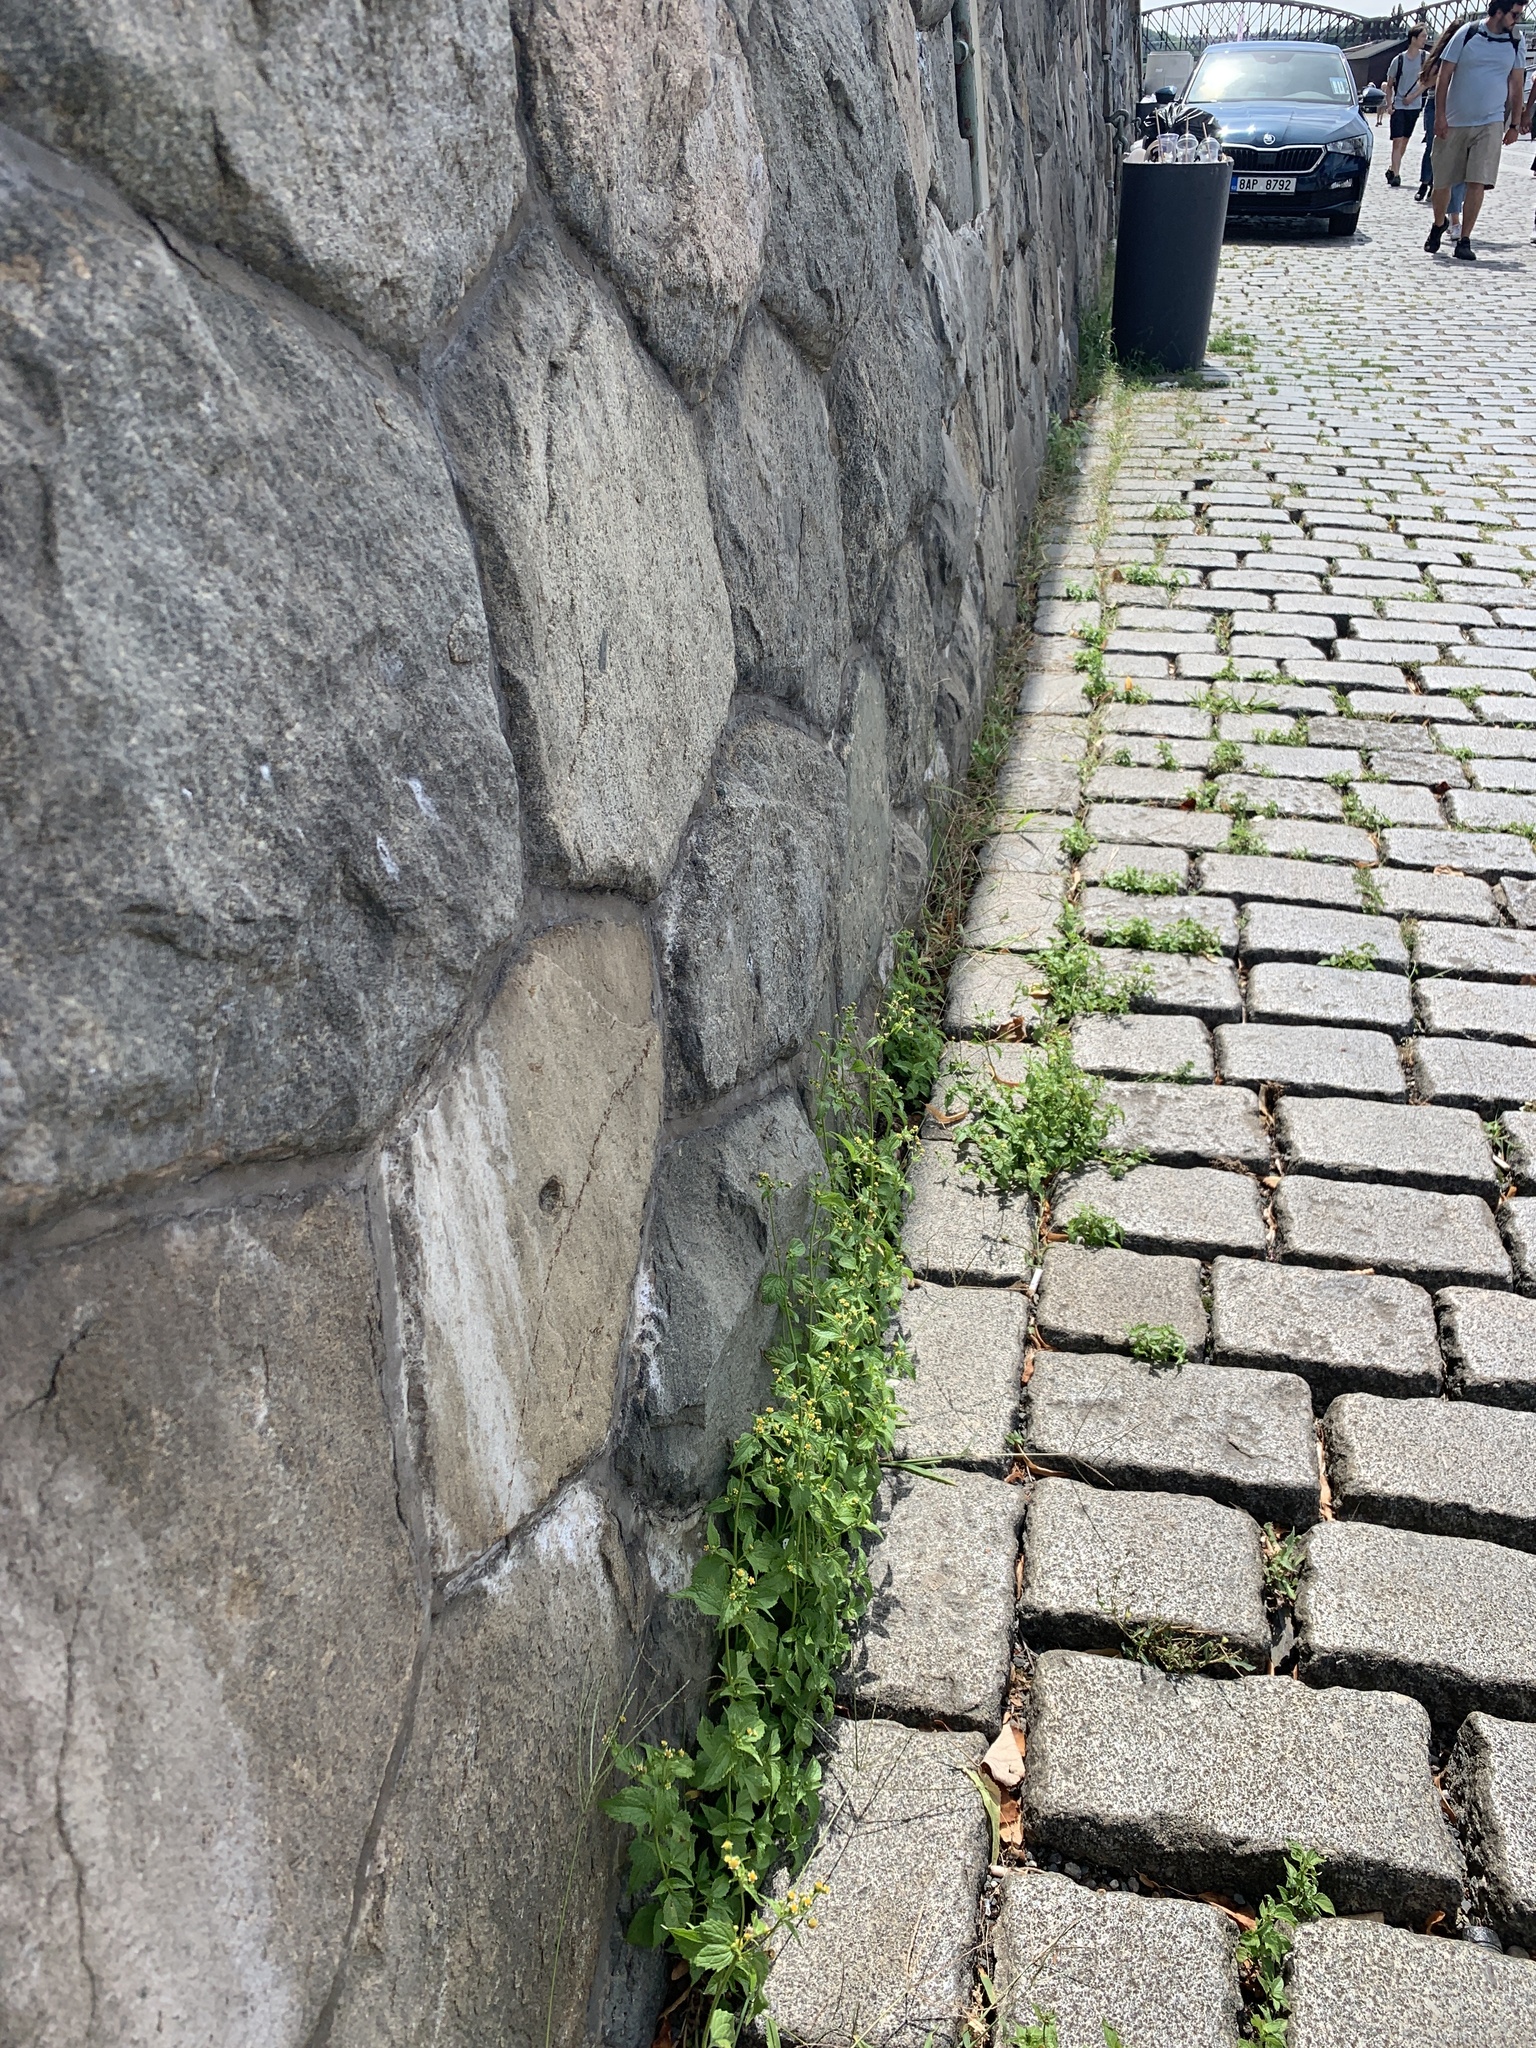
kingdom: Plantae
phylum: Tracheophyta
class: Magnoliopsida
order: Asterales
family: Asteraceae
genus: Galinsoga
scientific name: Galinsoga parviflora
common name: Gallant soldier
